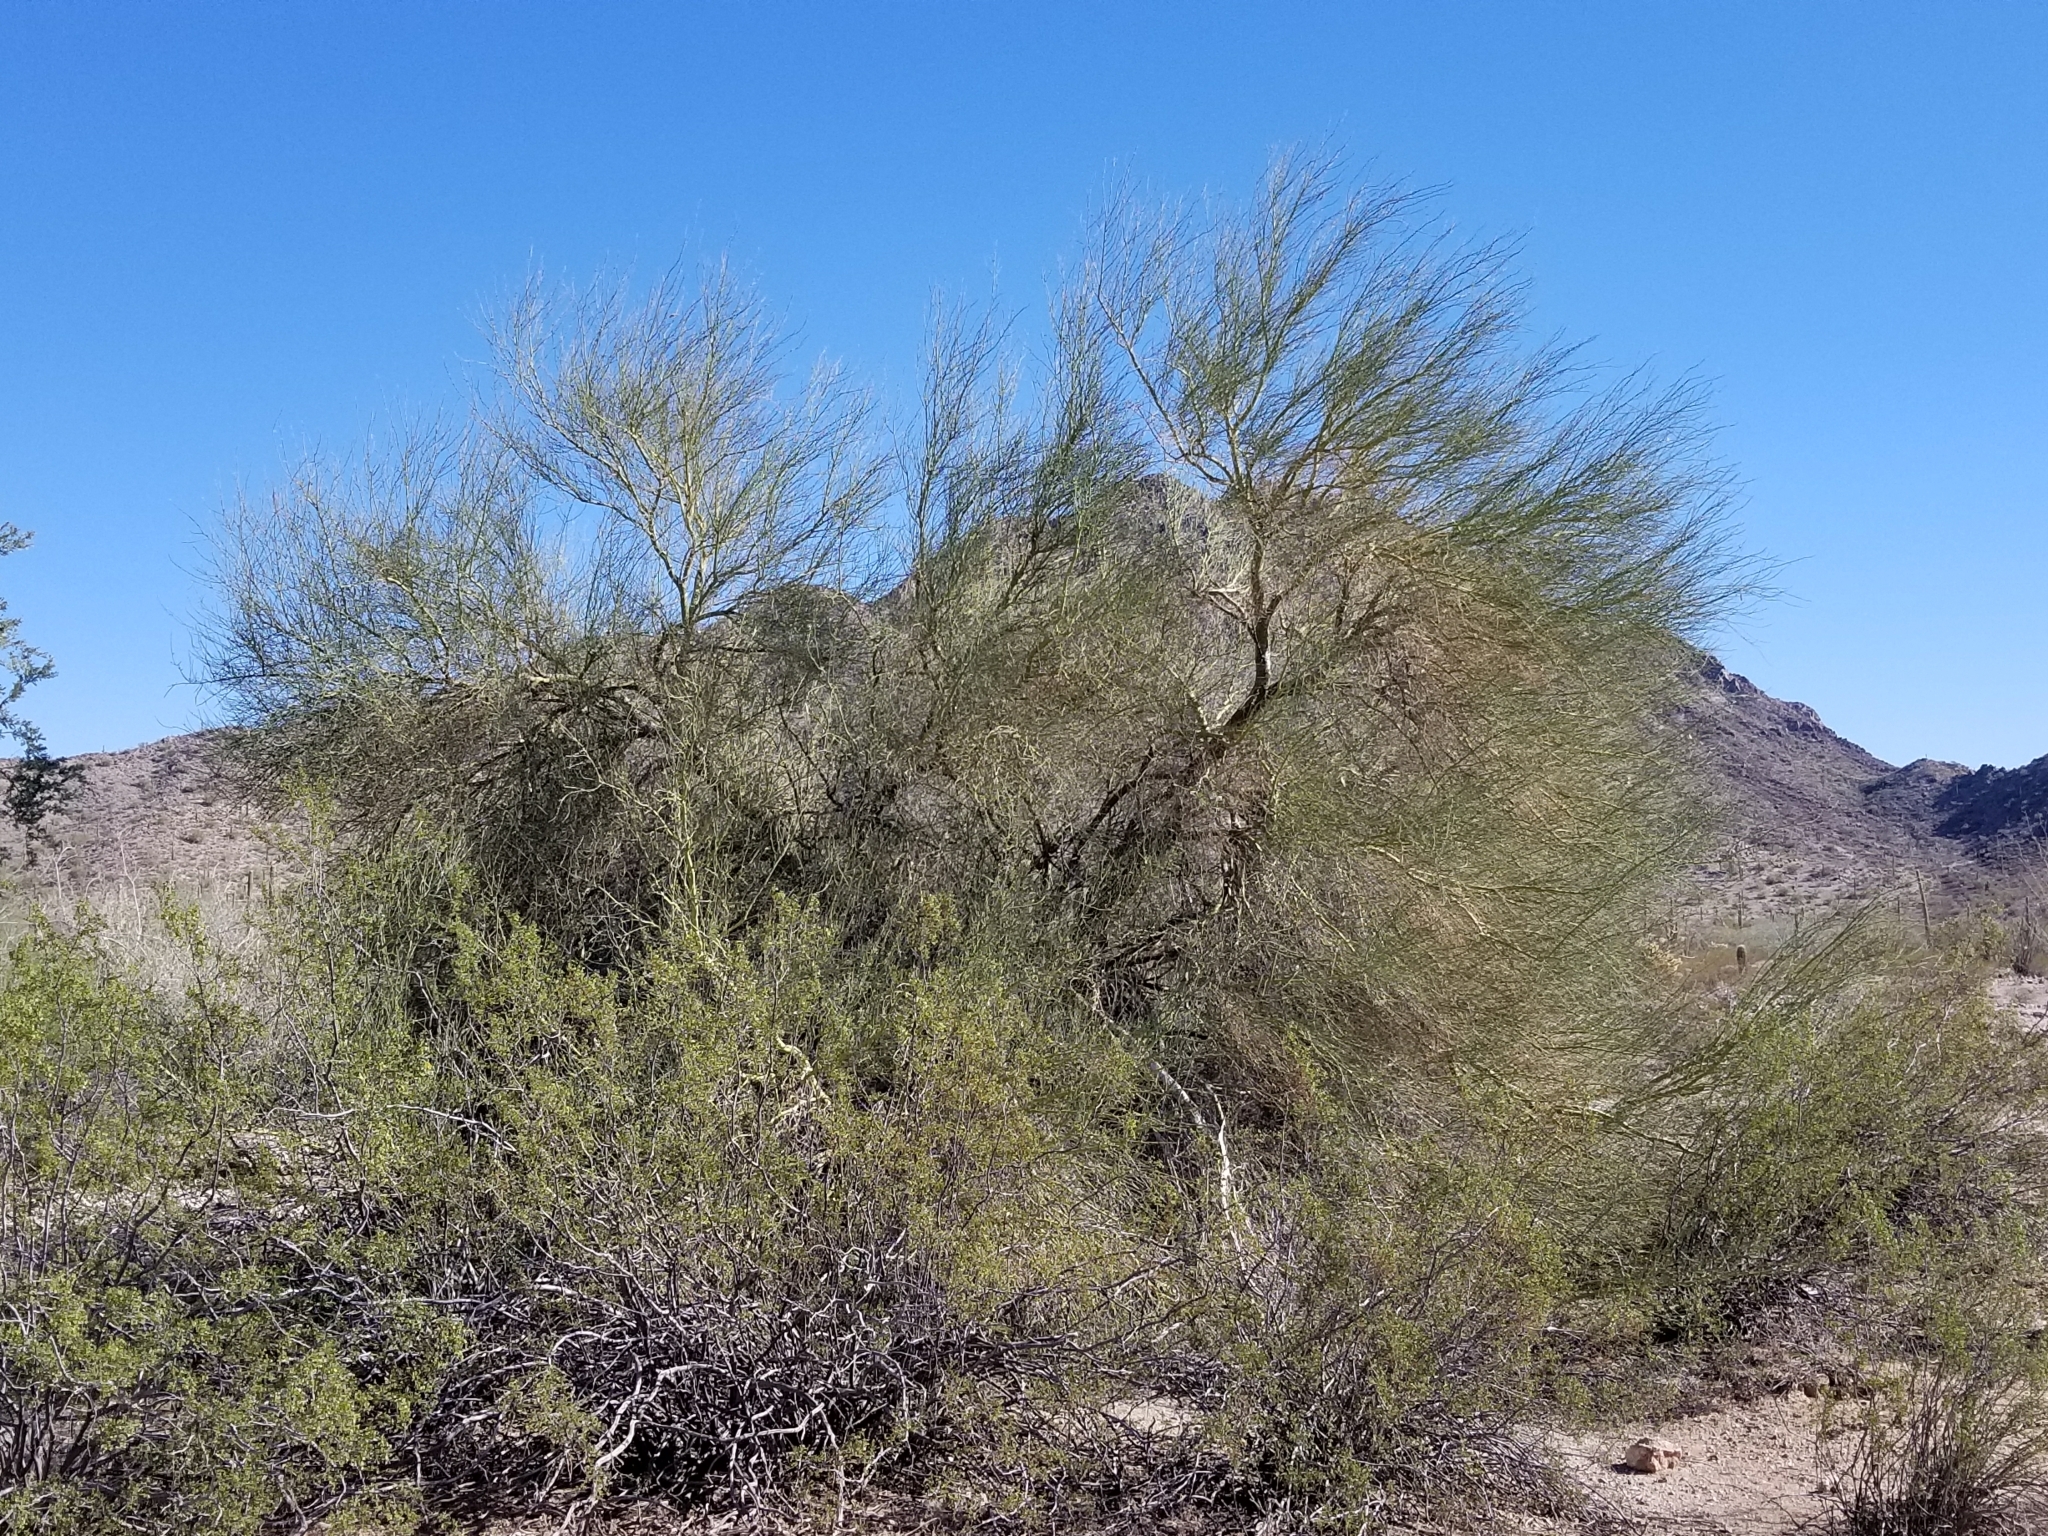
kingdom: Plantae
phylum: Tracheophyta
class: Magnoliopsida
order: Fabales
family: Fabaceae
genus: Parkinsonia
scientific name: Parkinsonia florida
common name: Blue paloverde
